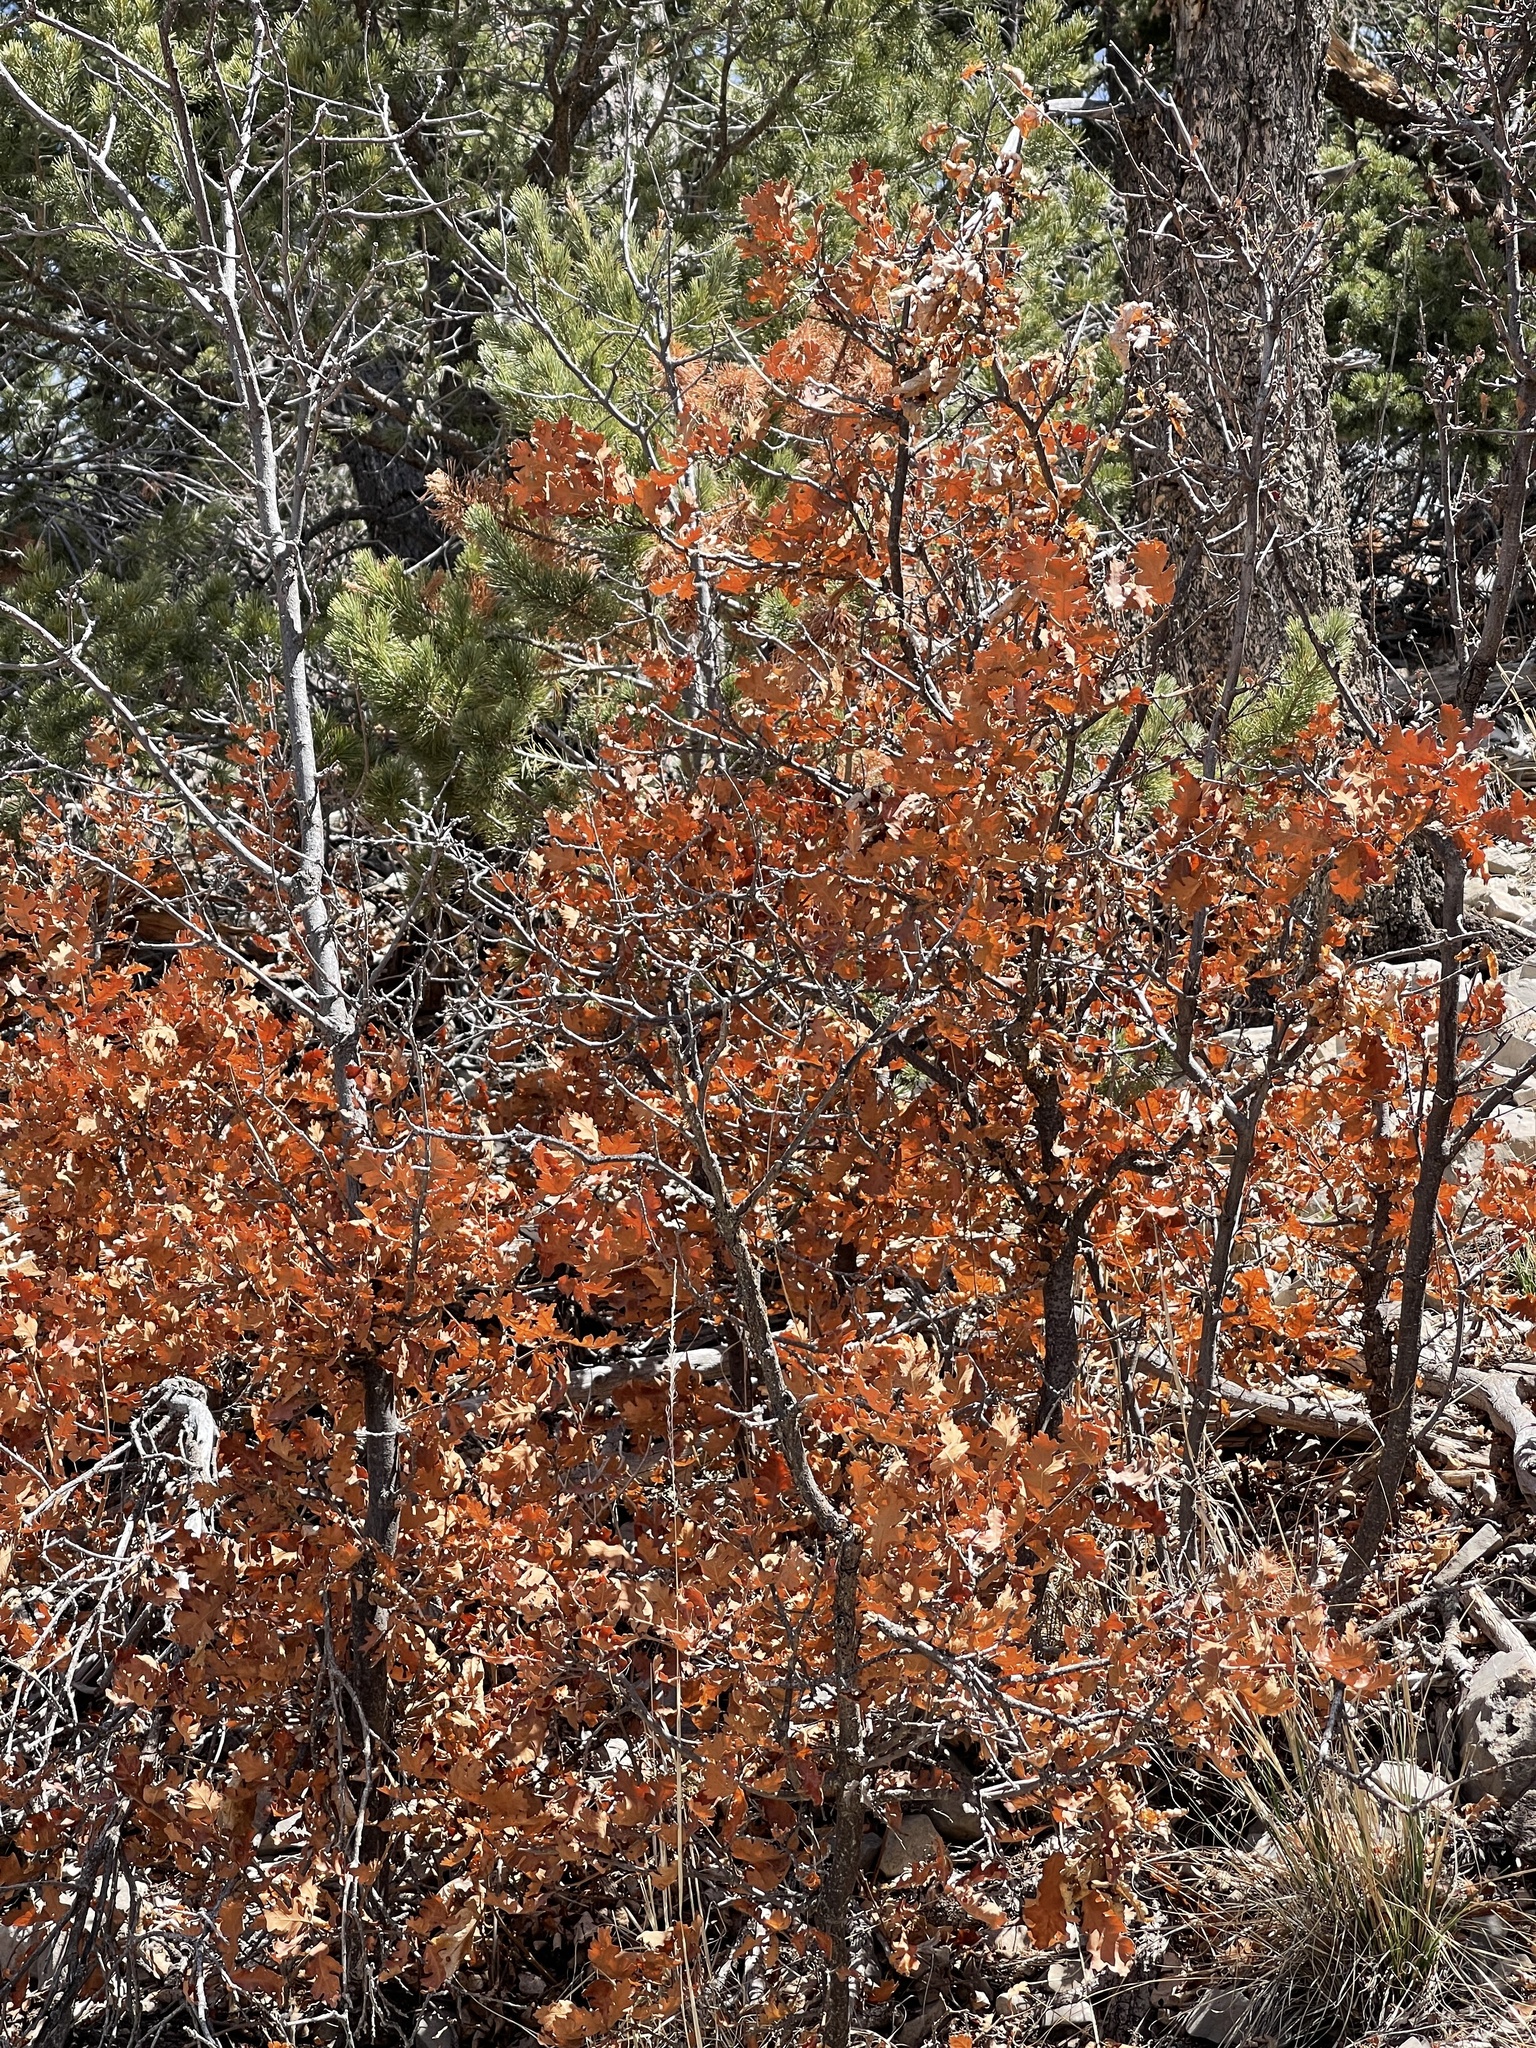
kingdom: Plantae
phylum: Tracheophyta
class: Magnoliopsida
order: Fagales
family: Fagaceae
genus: Quercus
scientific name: Quercus gambelii
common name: Gambel oak
